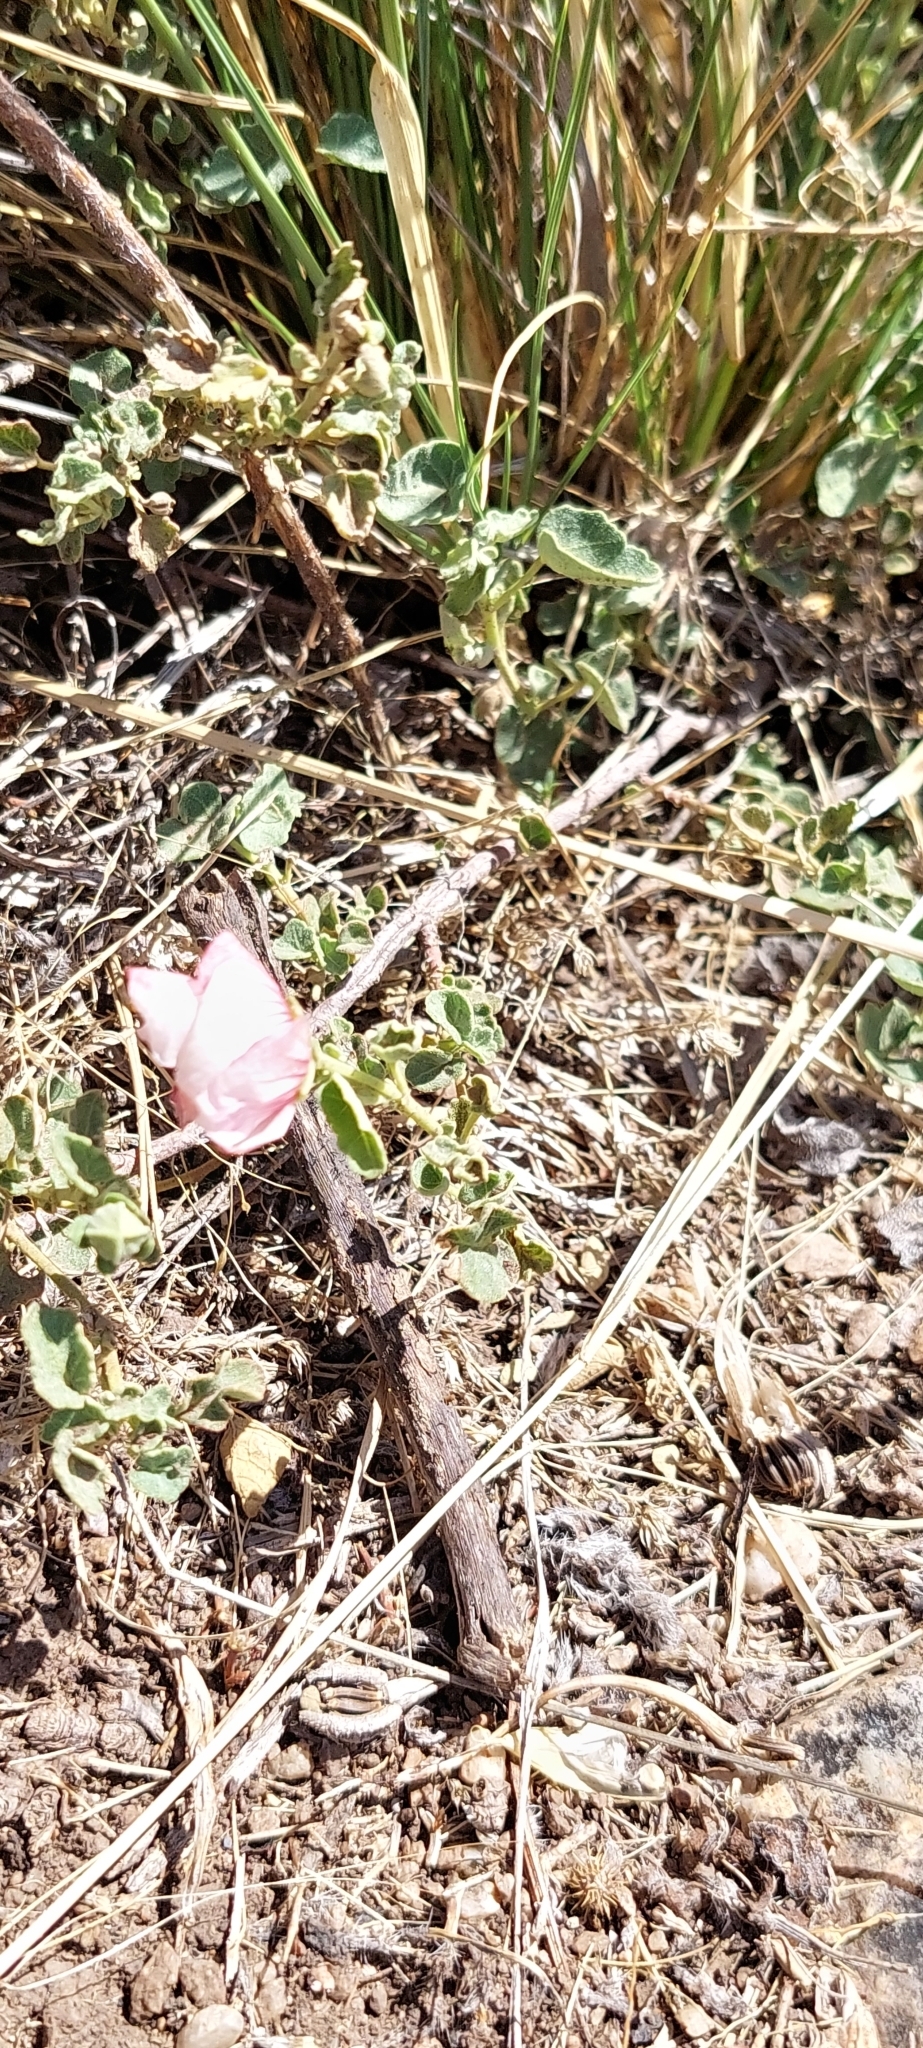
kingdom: Plantae
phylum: Tracheophyta
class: Magnoliopsida
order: Malvales
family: Malvaceae
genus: Pavonia
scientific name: Pavonia cymbalaria
